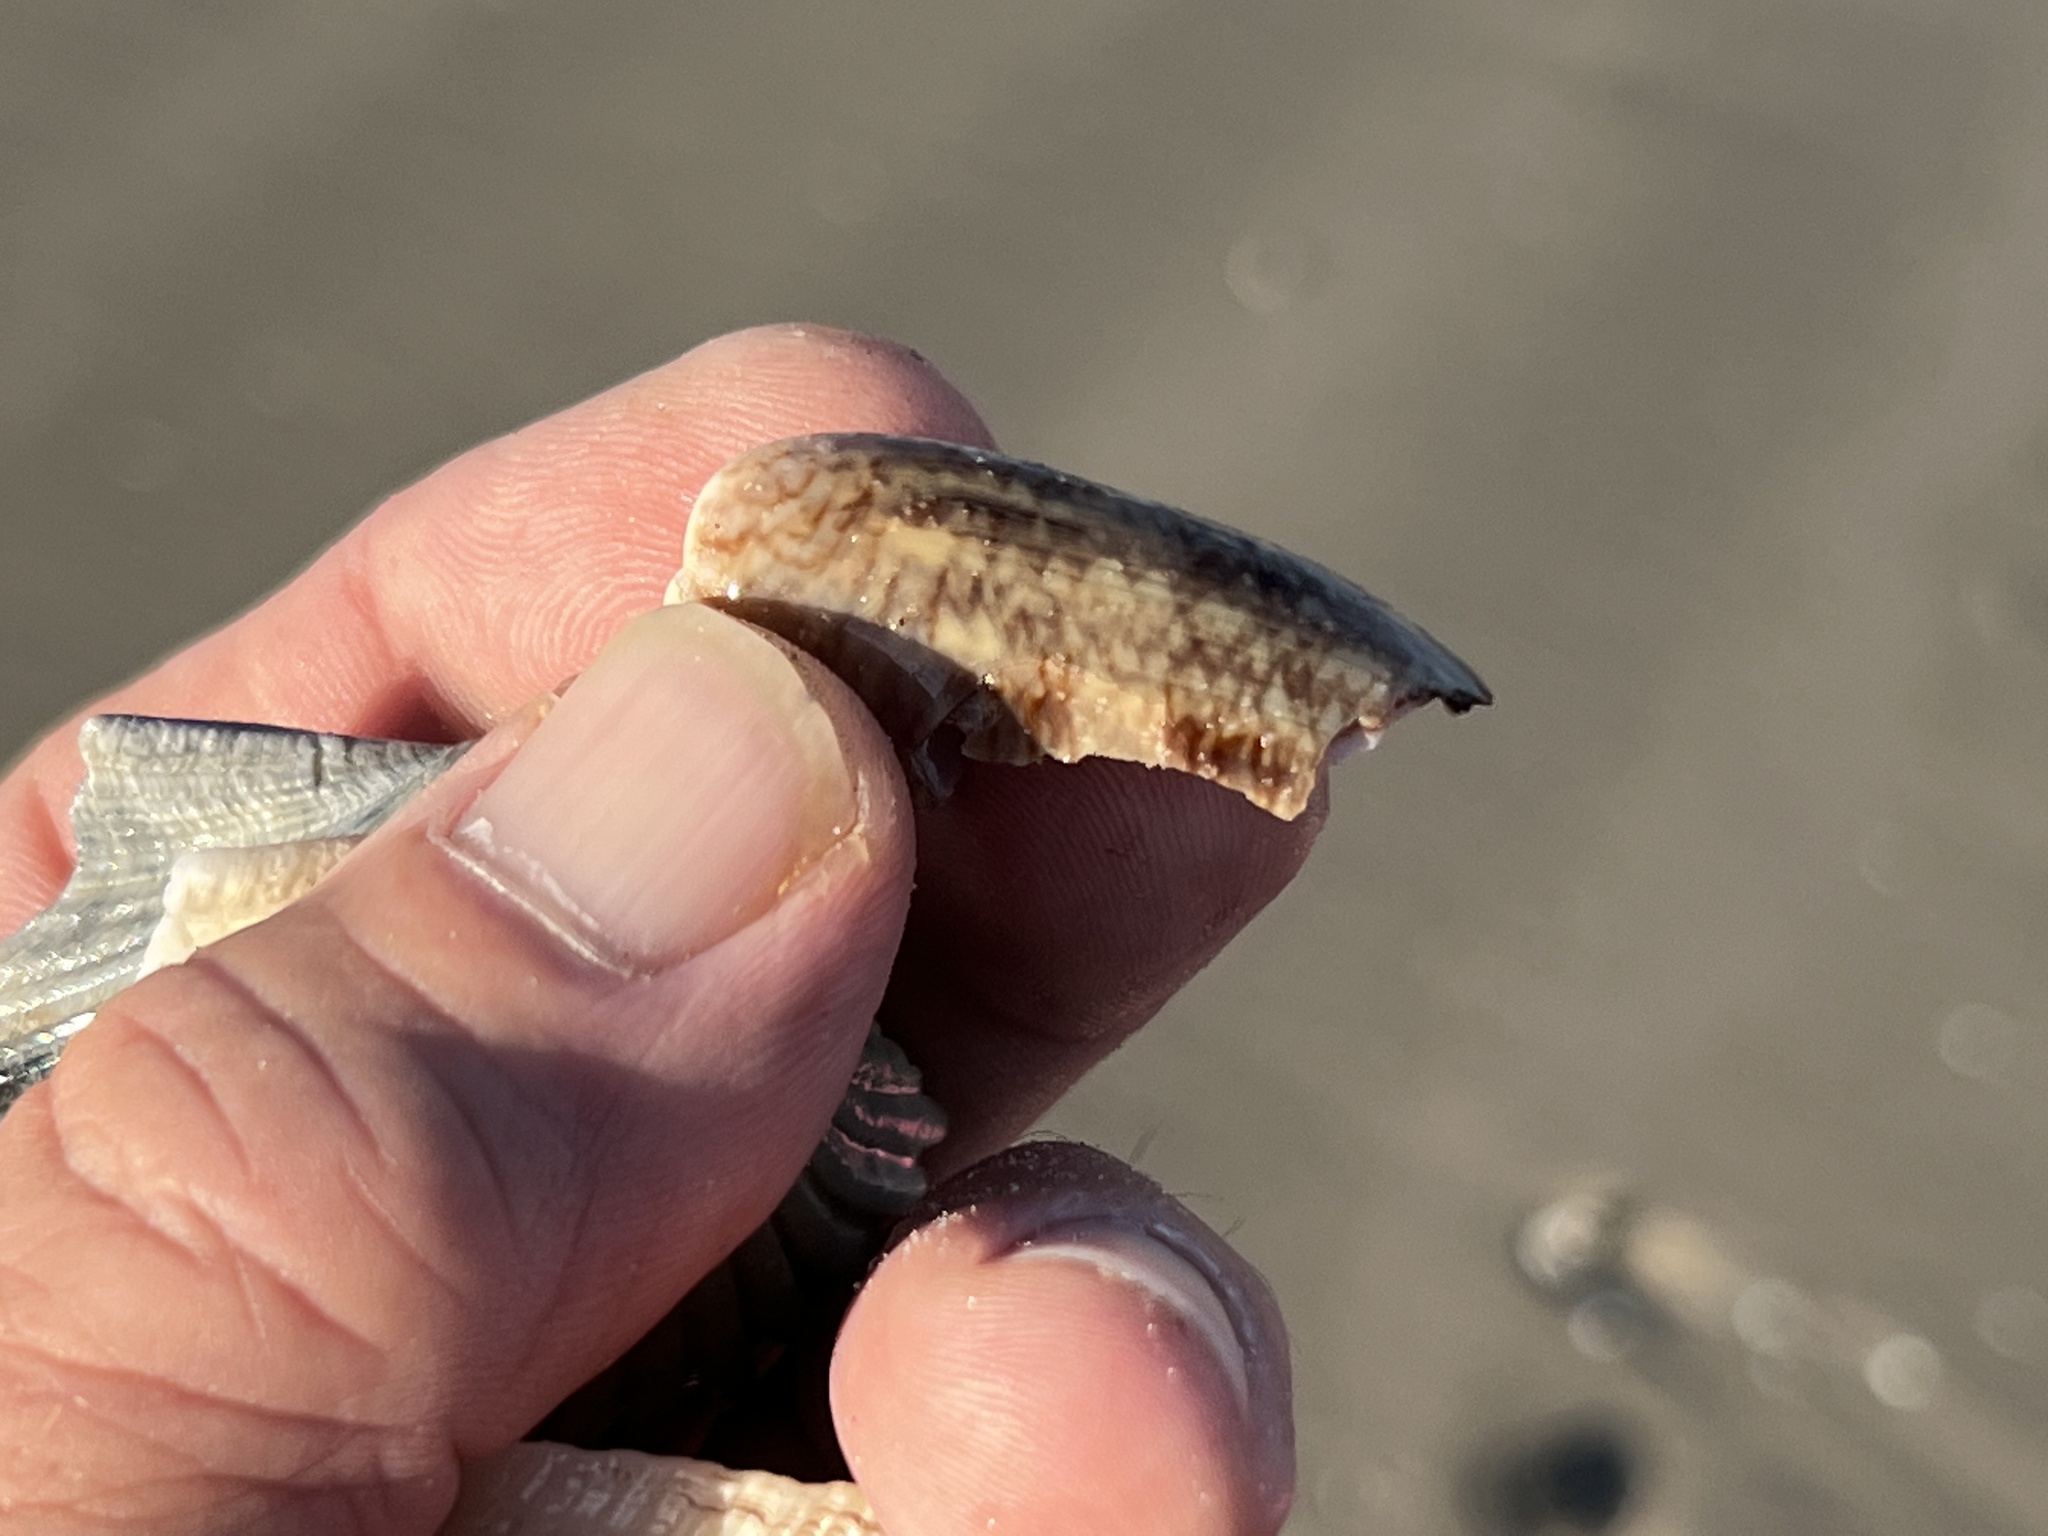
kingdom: Animalia
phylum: Mollusca
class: Gastropoda
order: Neogastropoda
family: Olividae
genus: Oliva
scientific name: Oliva sayana
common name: Lettered olive
